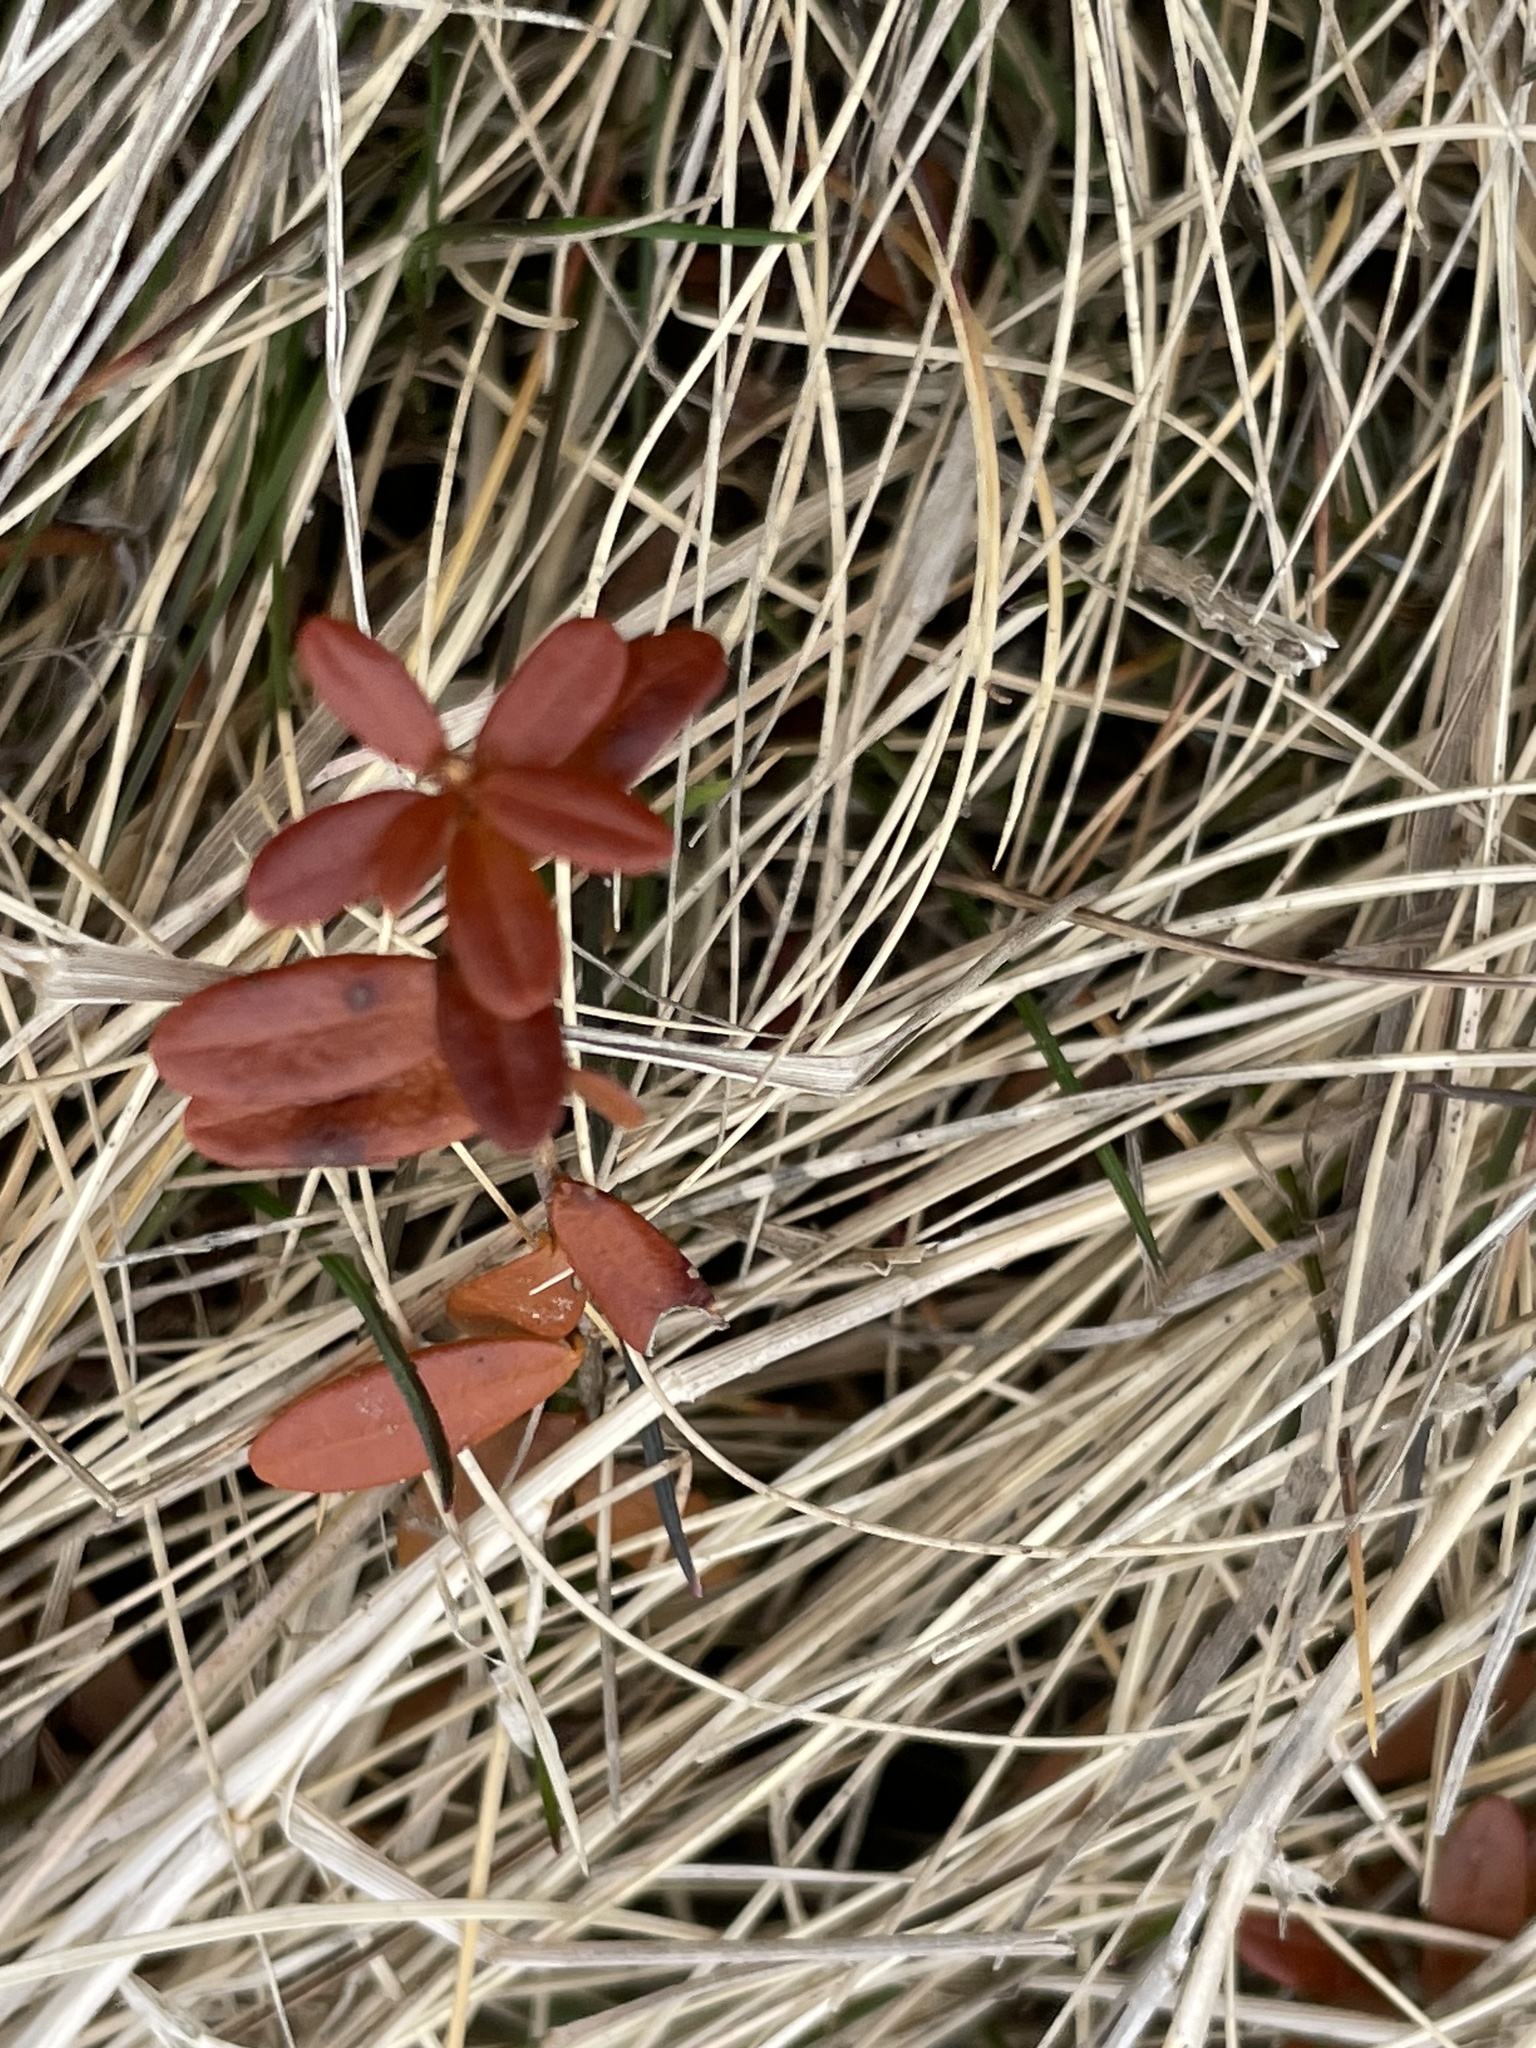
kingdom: Plantae
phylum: Tracheophyta
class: Magnoliopsida
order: Ericales
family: Ericaceae
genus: Vaccinium
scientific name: Vaccinium macrocarpon
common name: American cranberry
